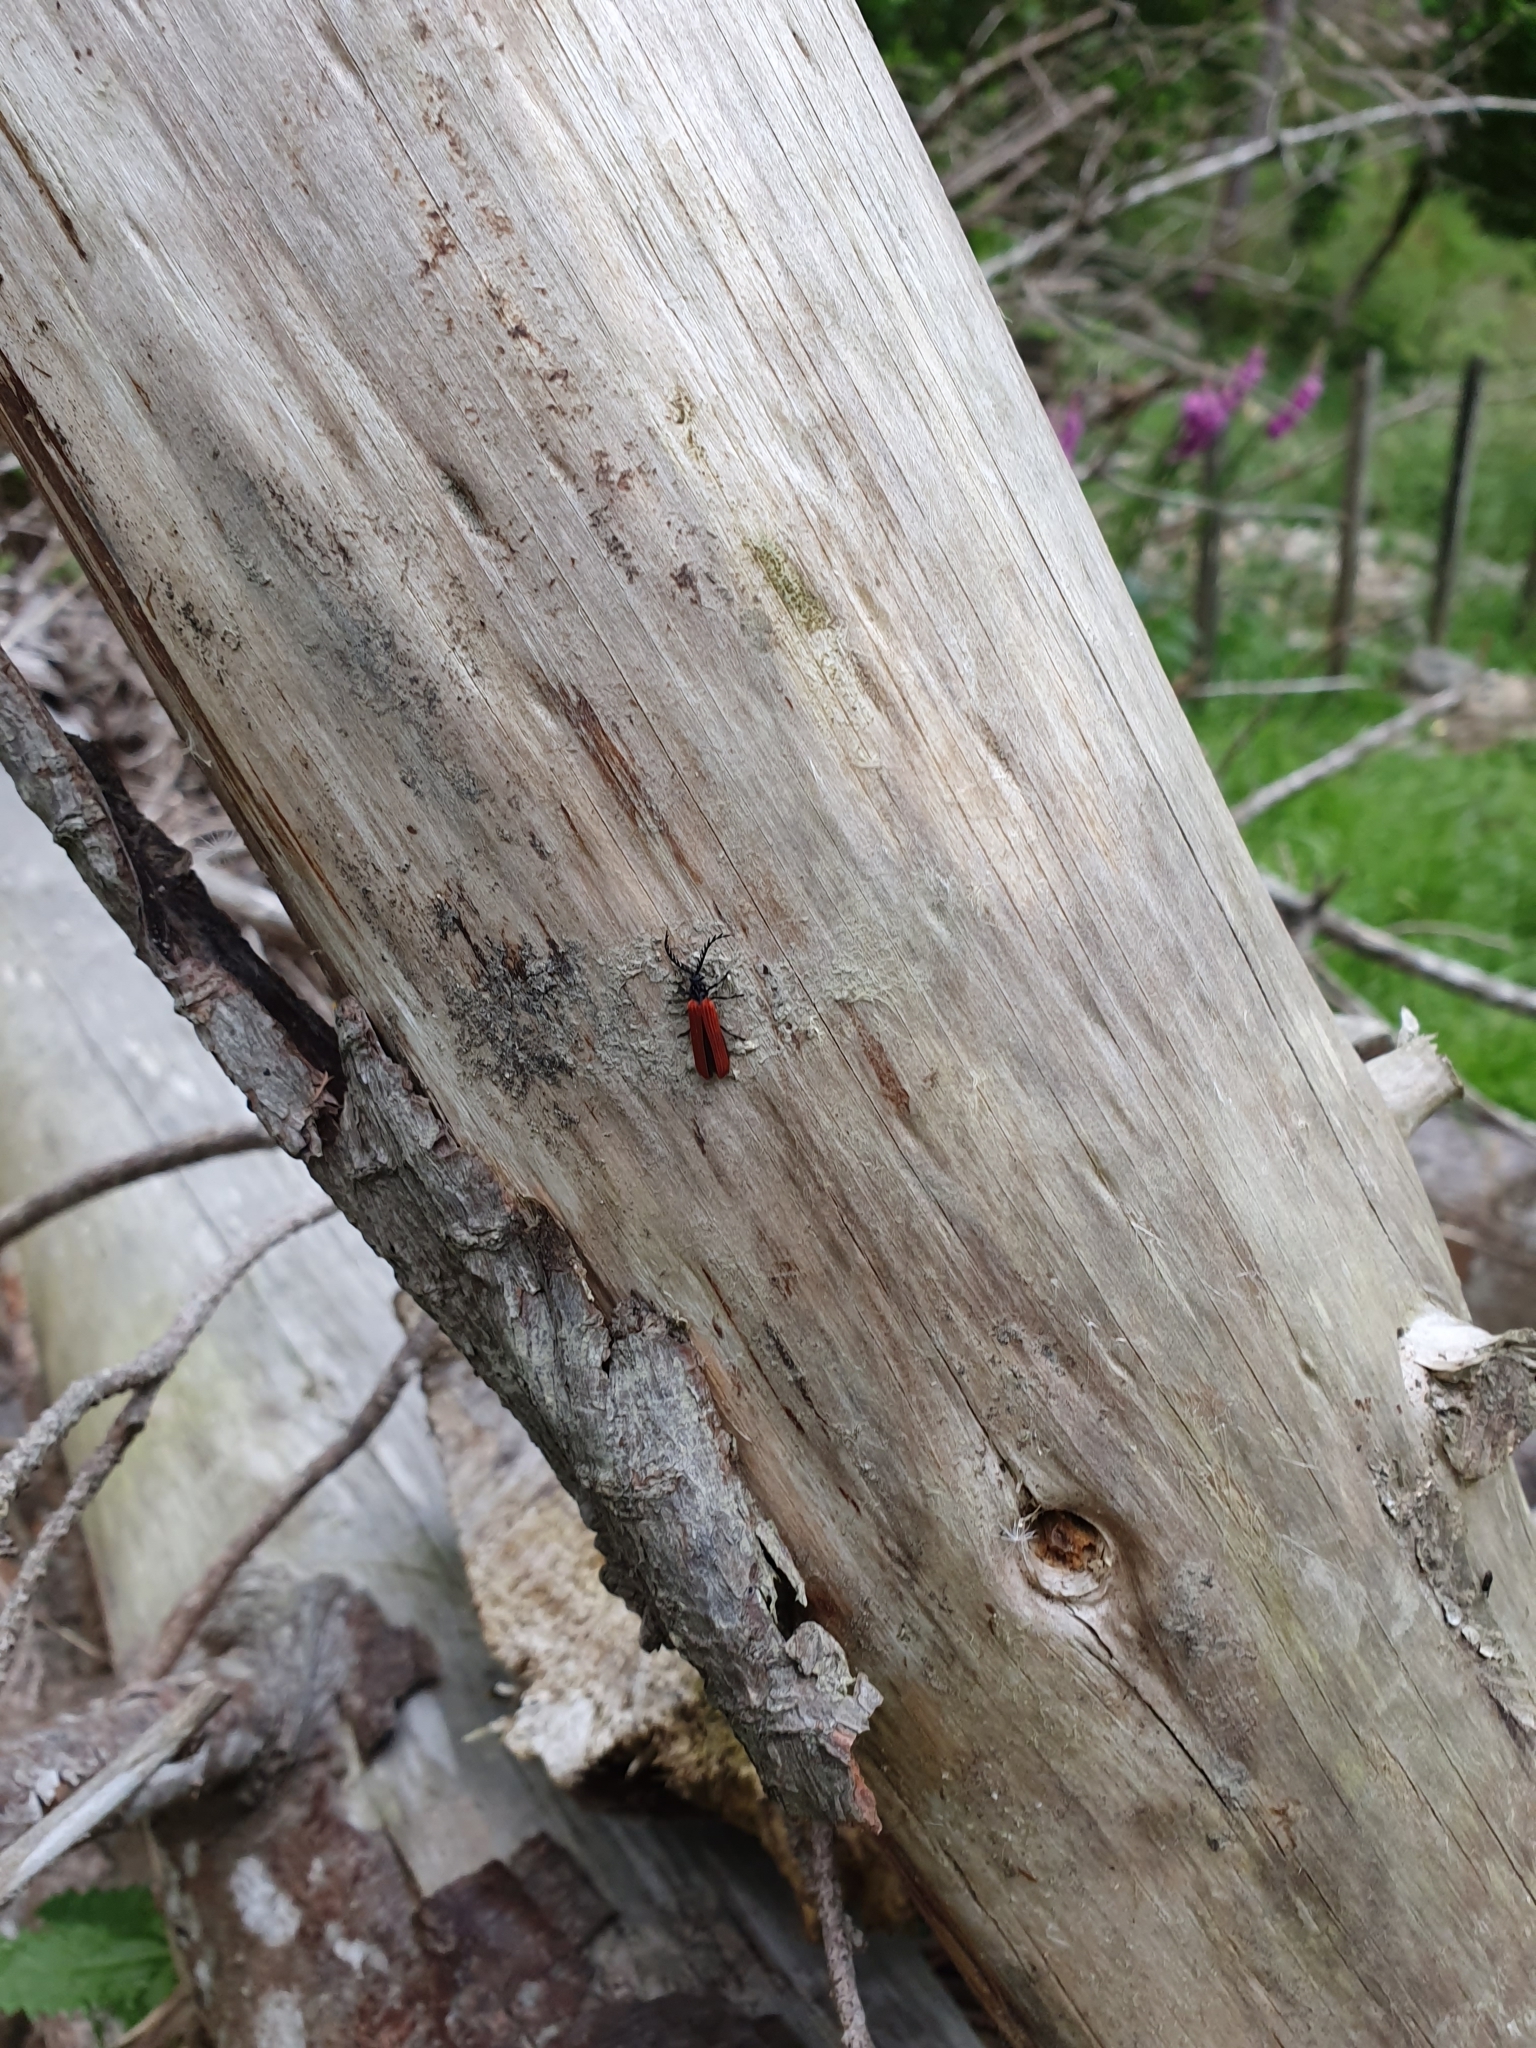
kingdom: Animalia
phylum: Arthropoda
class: Insecta
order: Coleoptera
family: Lycidae
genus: Porrostoma
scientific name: Porrostoma rufipenne
